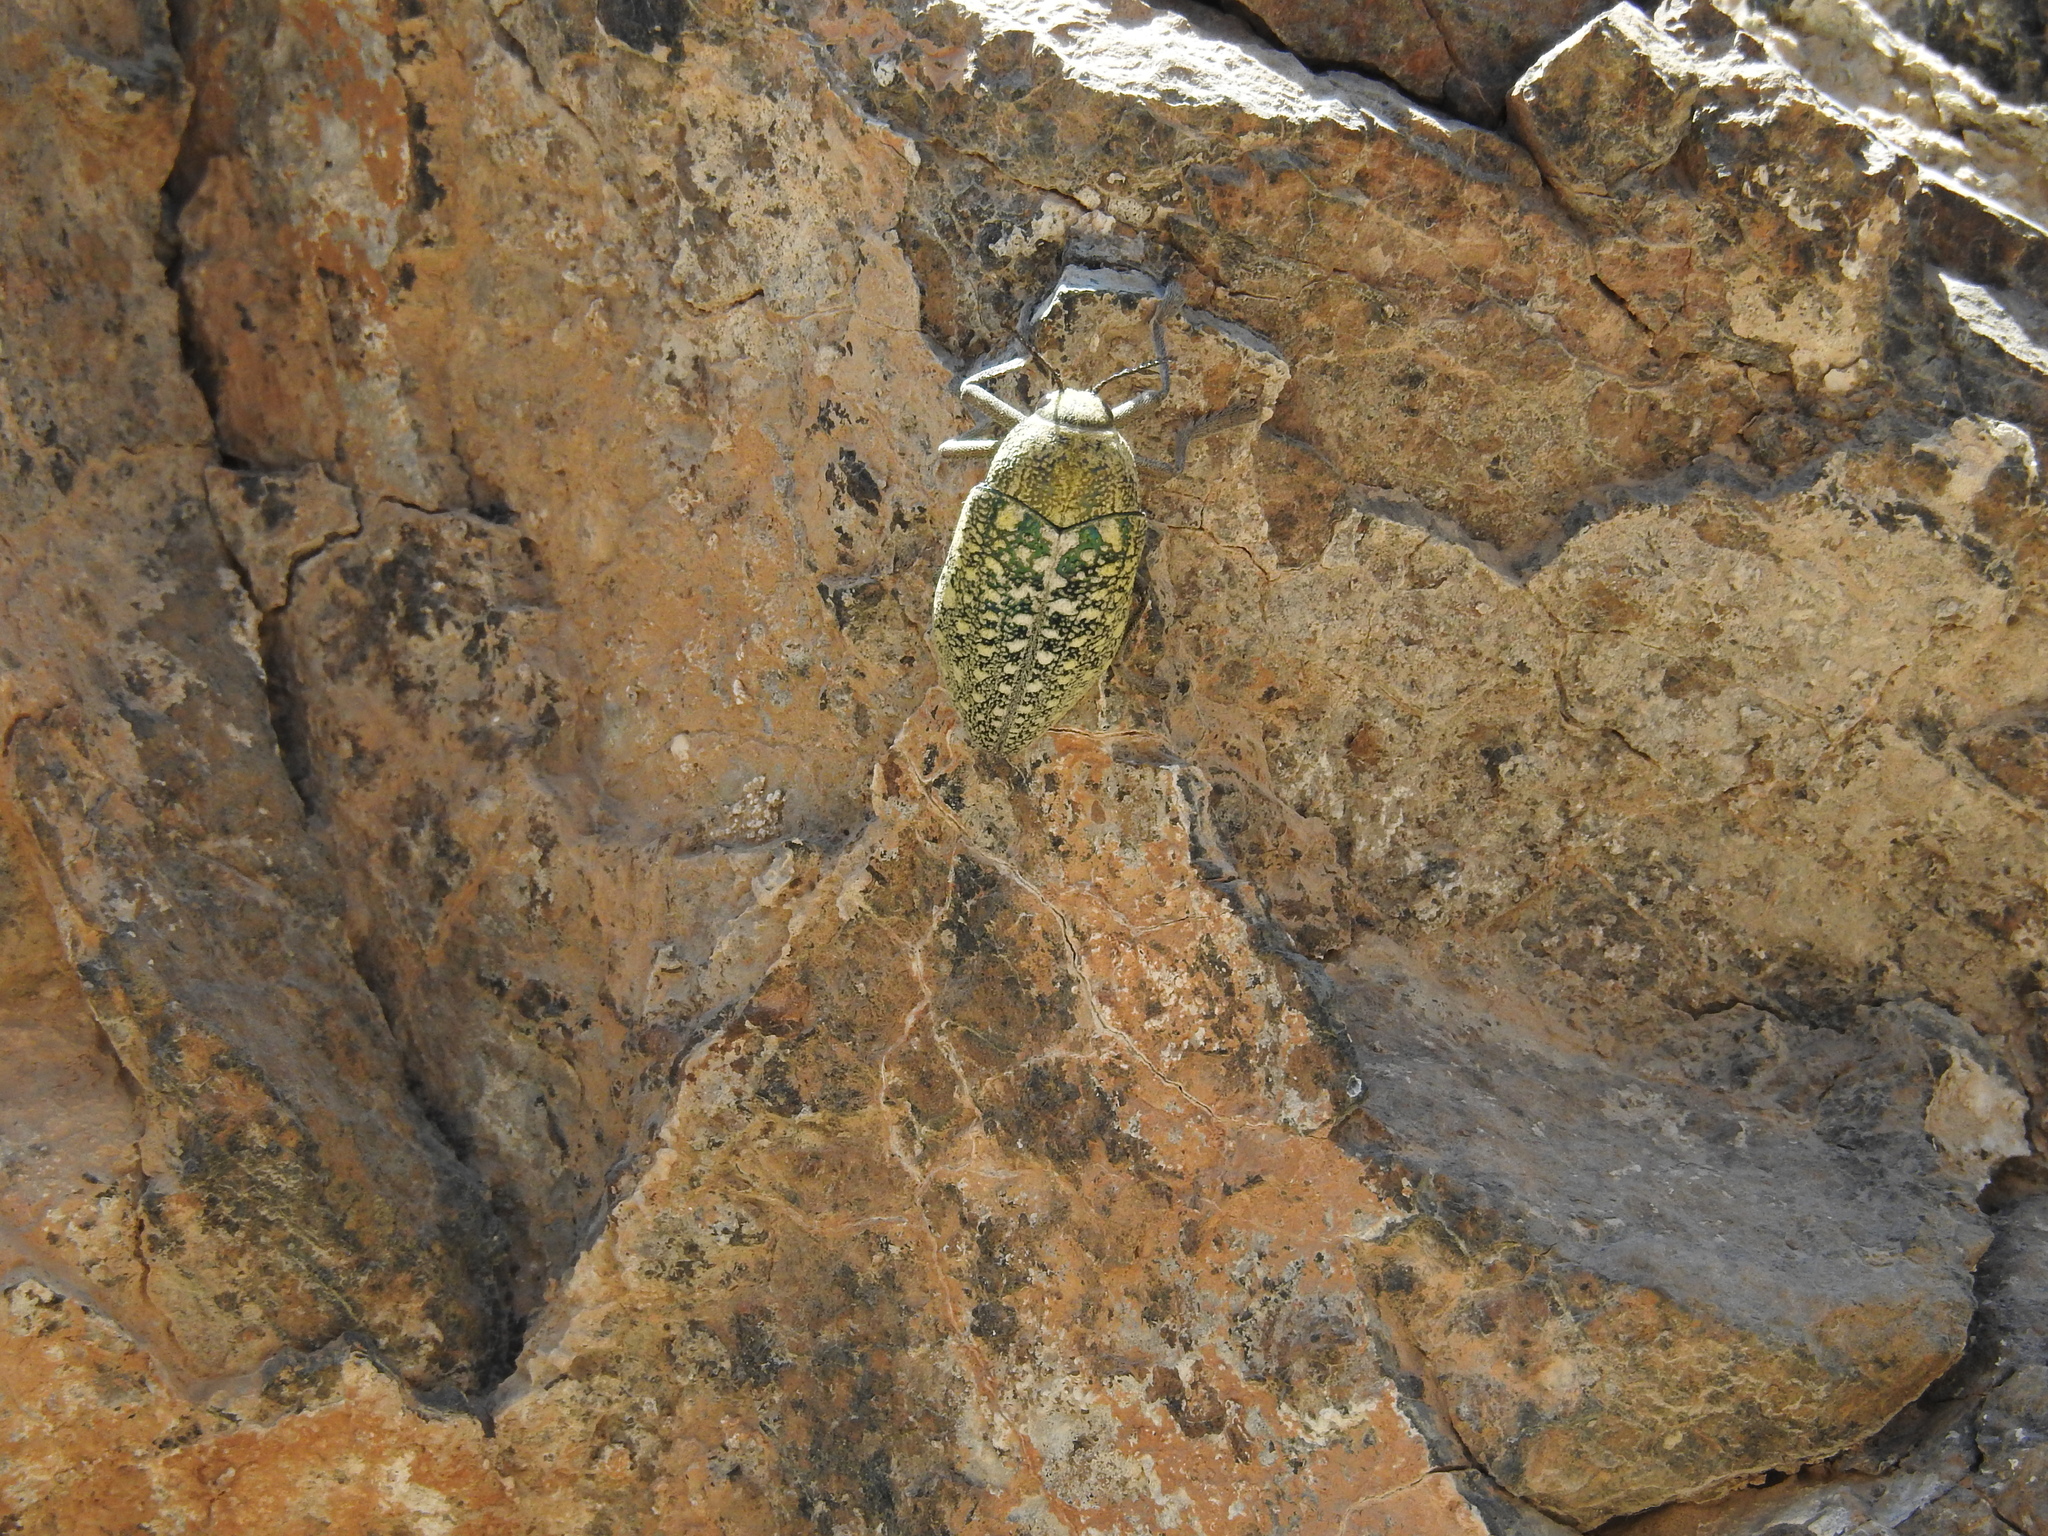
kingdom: Animalia
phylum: Arthropoda
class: Insecta
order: Coleoptera
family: Buprestidae
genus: Julodis
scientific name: Julodis euphratica
